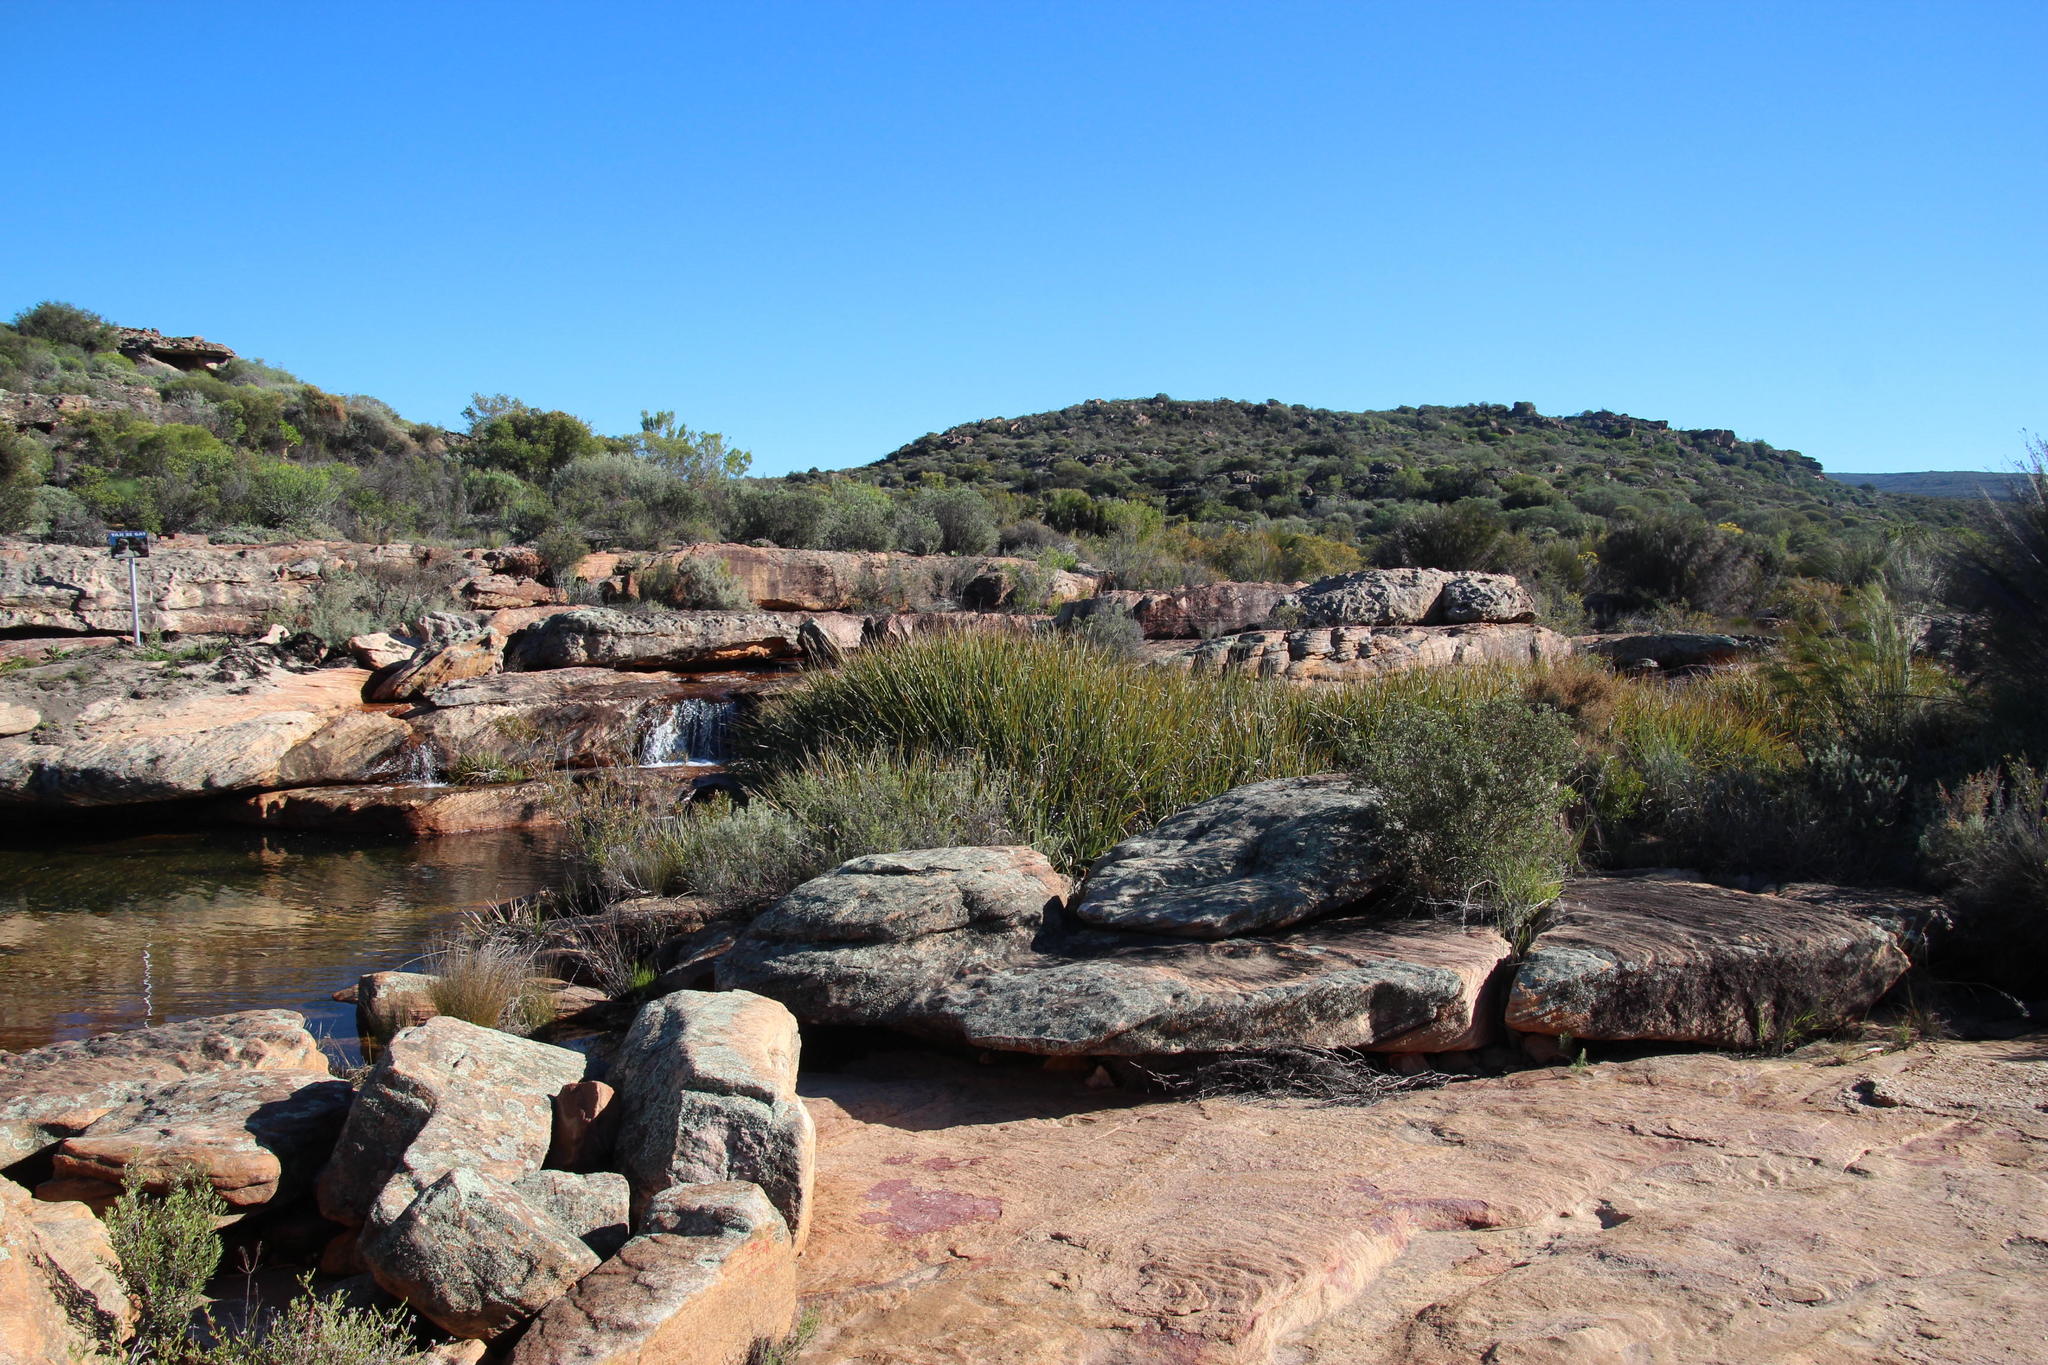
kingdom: Plantae
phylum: Tracheophyta
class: Liliopsida
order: Poales
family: Thurniaceae
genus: Prionium
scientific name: Prionium serratum
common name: Palmiet
